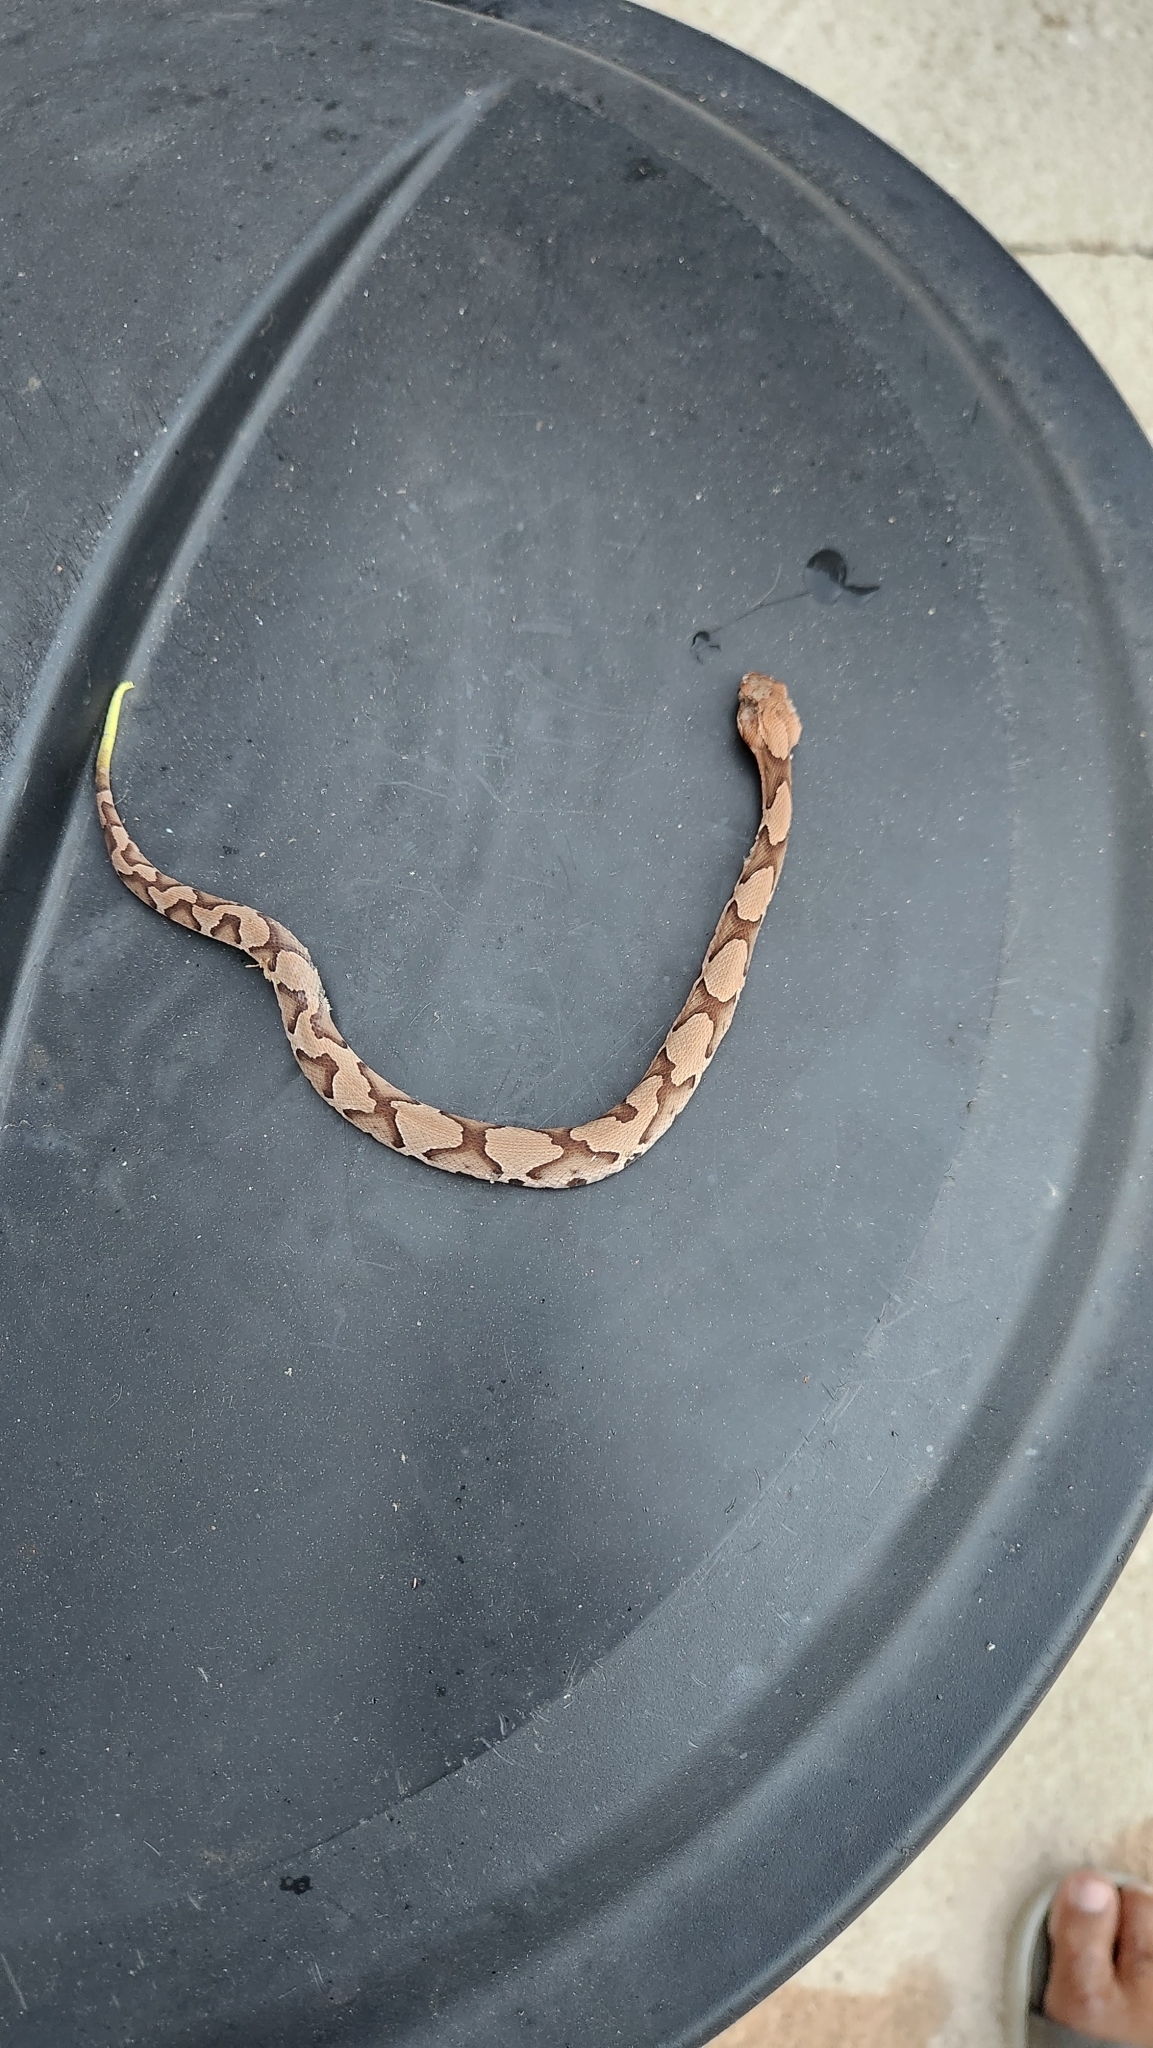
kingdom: Animalia
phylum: Chordata
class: Squamata
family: Viperidae
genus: Agkistrodon
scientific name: Agkistrodon contortrix
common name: Northern copperhead
